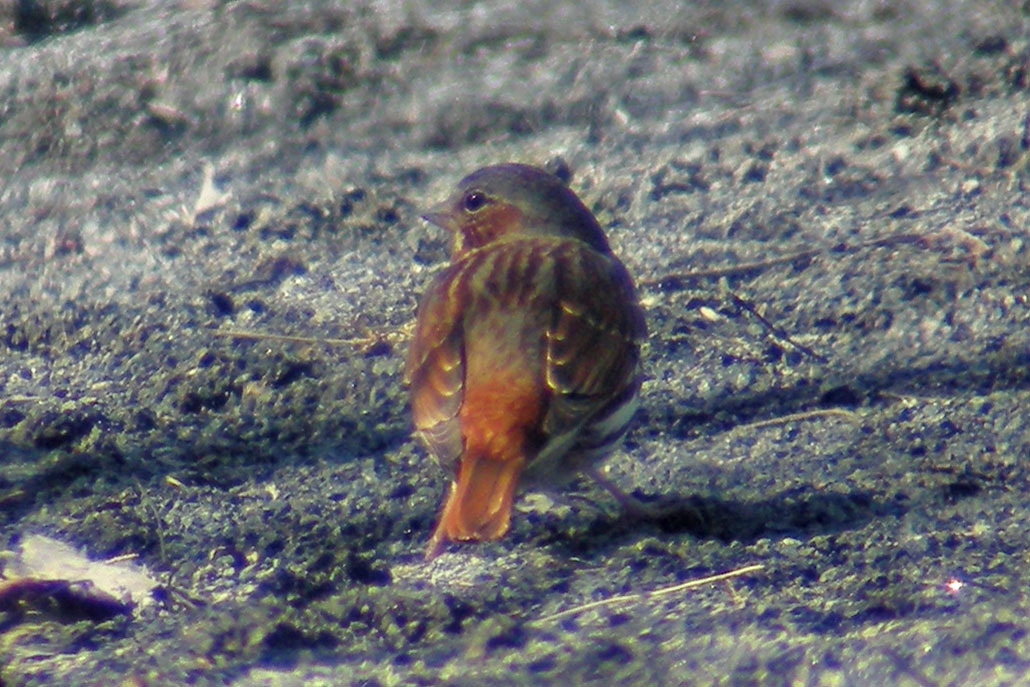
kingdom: Animalia
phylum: Chordata
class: Aves
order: Passeriformes
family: Passerellidae
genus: Passerella
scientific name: Passerella iliaca
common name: Fox sparrow
